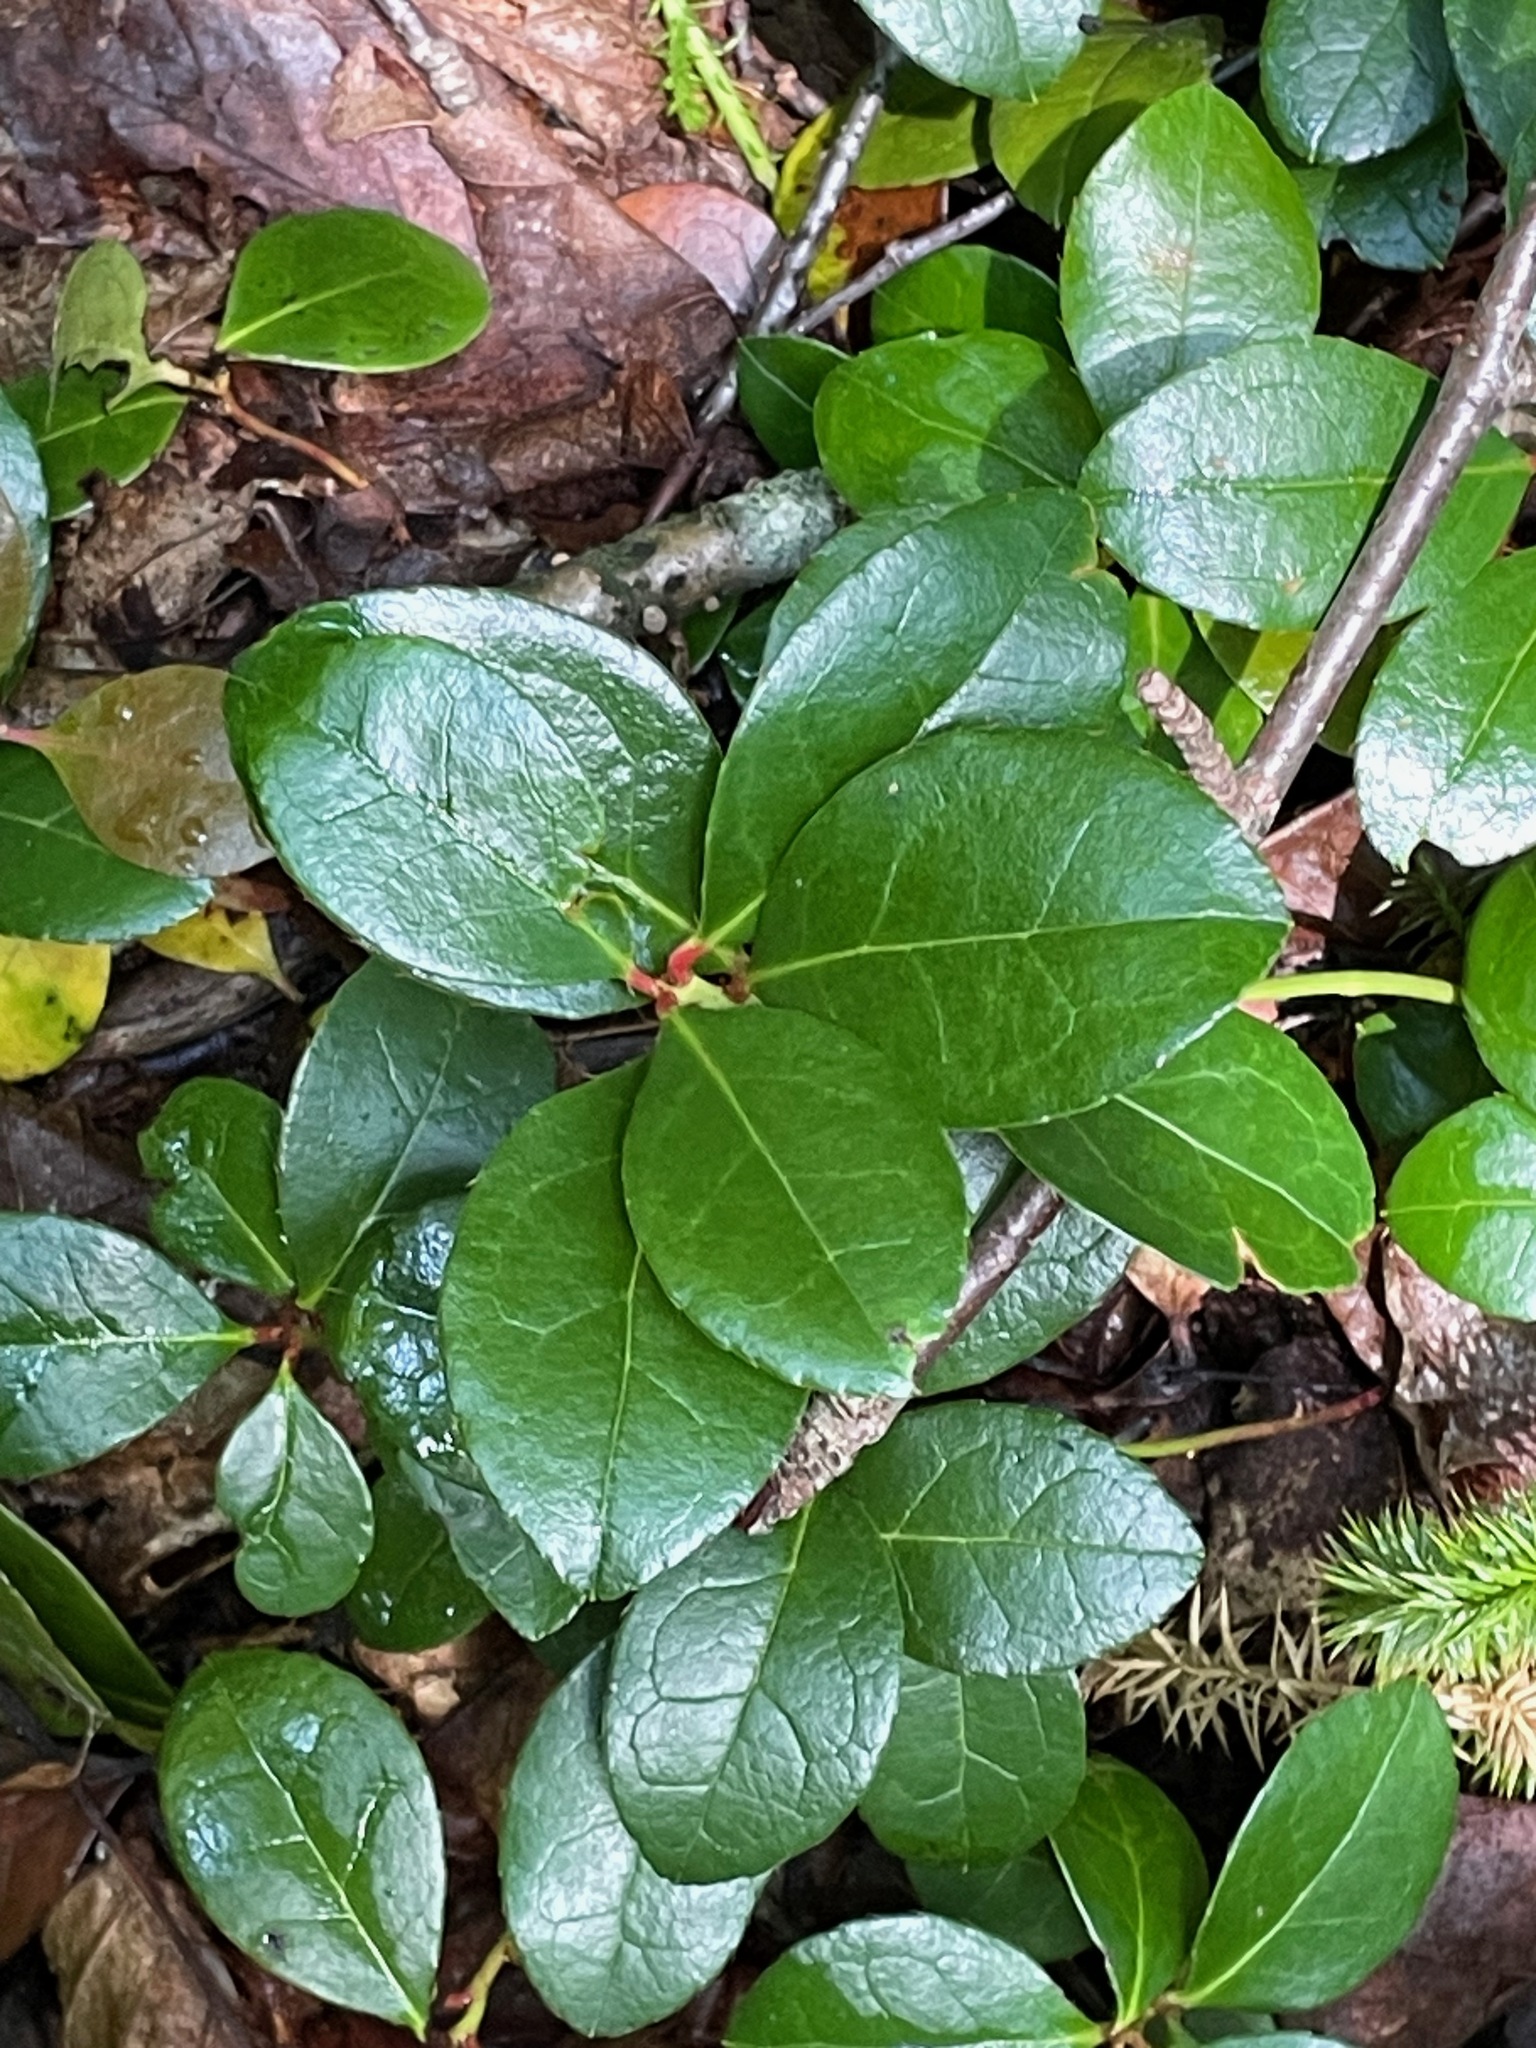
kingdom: Plantae
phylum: Tracheophyta
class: Magnoliopsida
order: Ericales
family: Ericaceae
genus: Gaultheria
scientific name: Gaultheria procumbens
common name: Checkerberry
